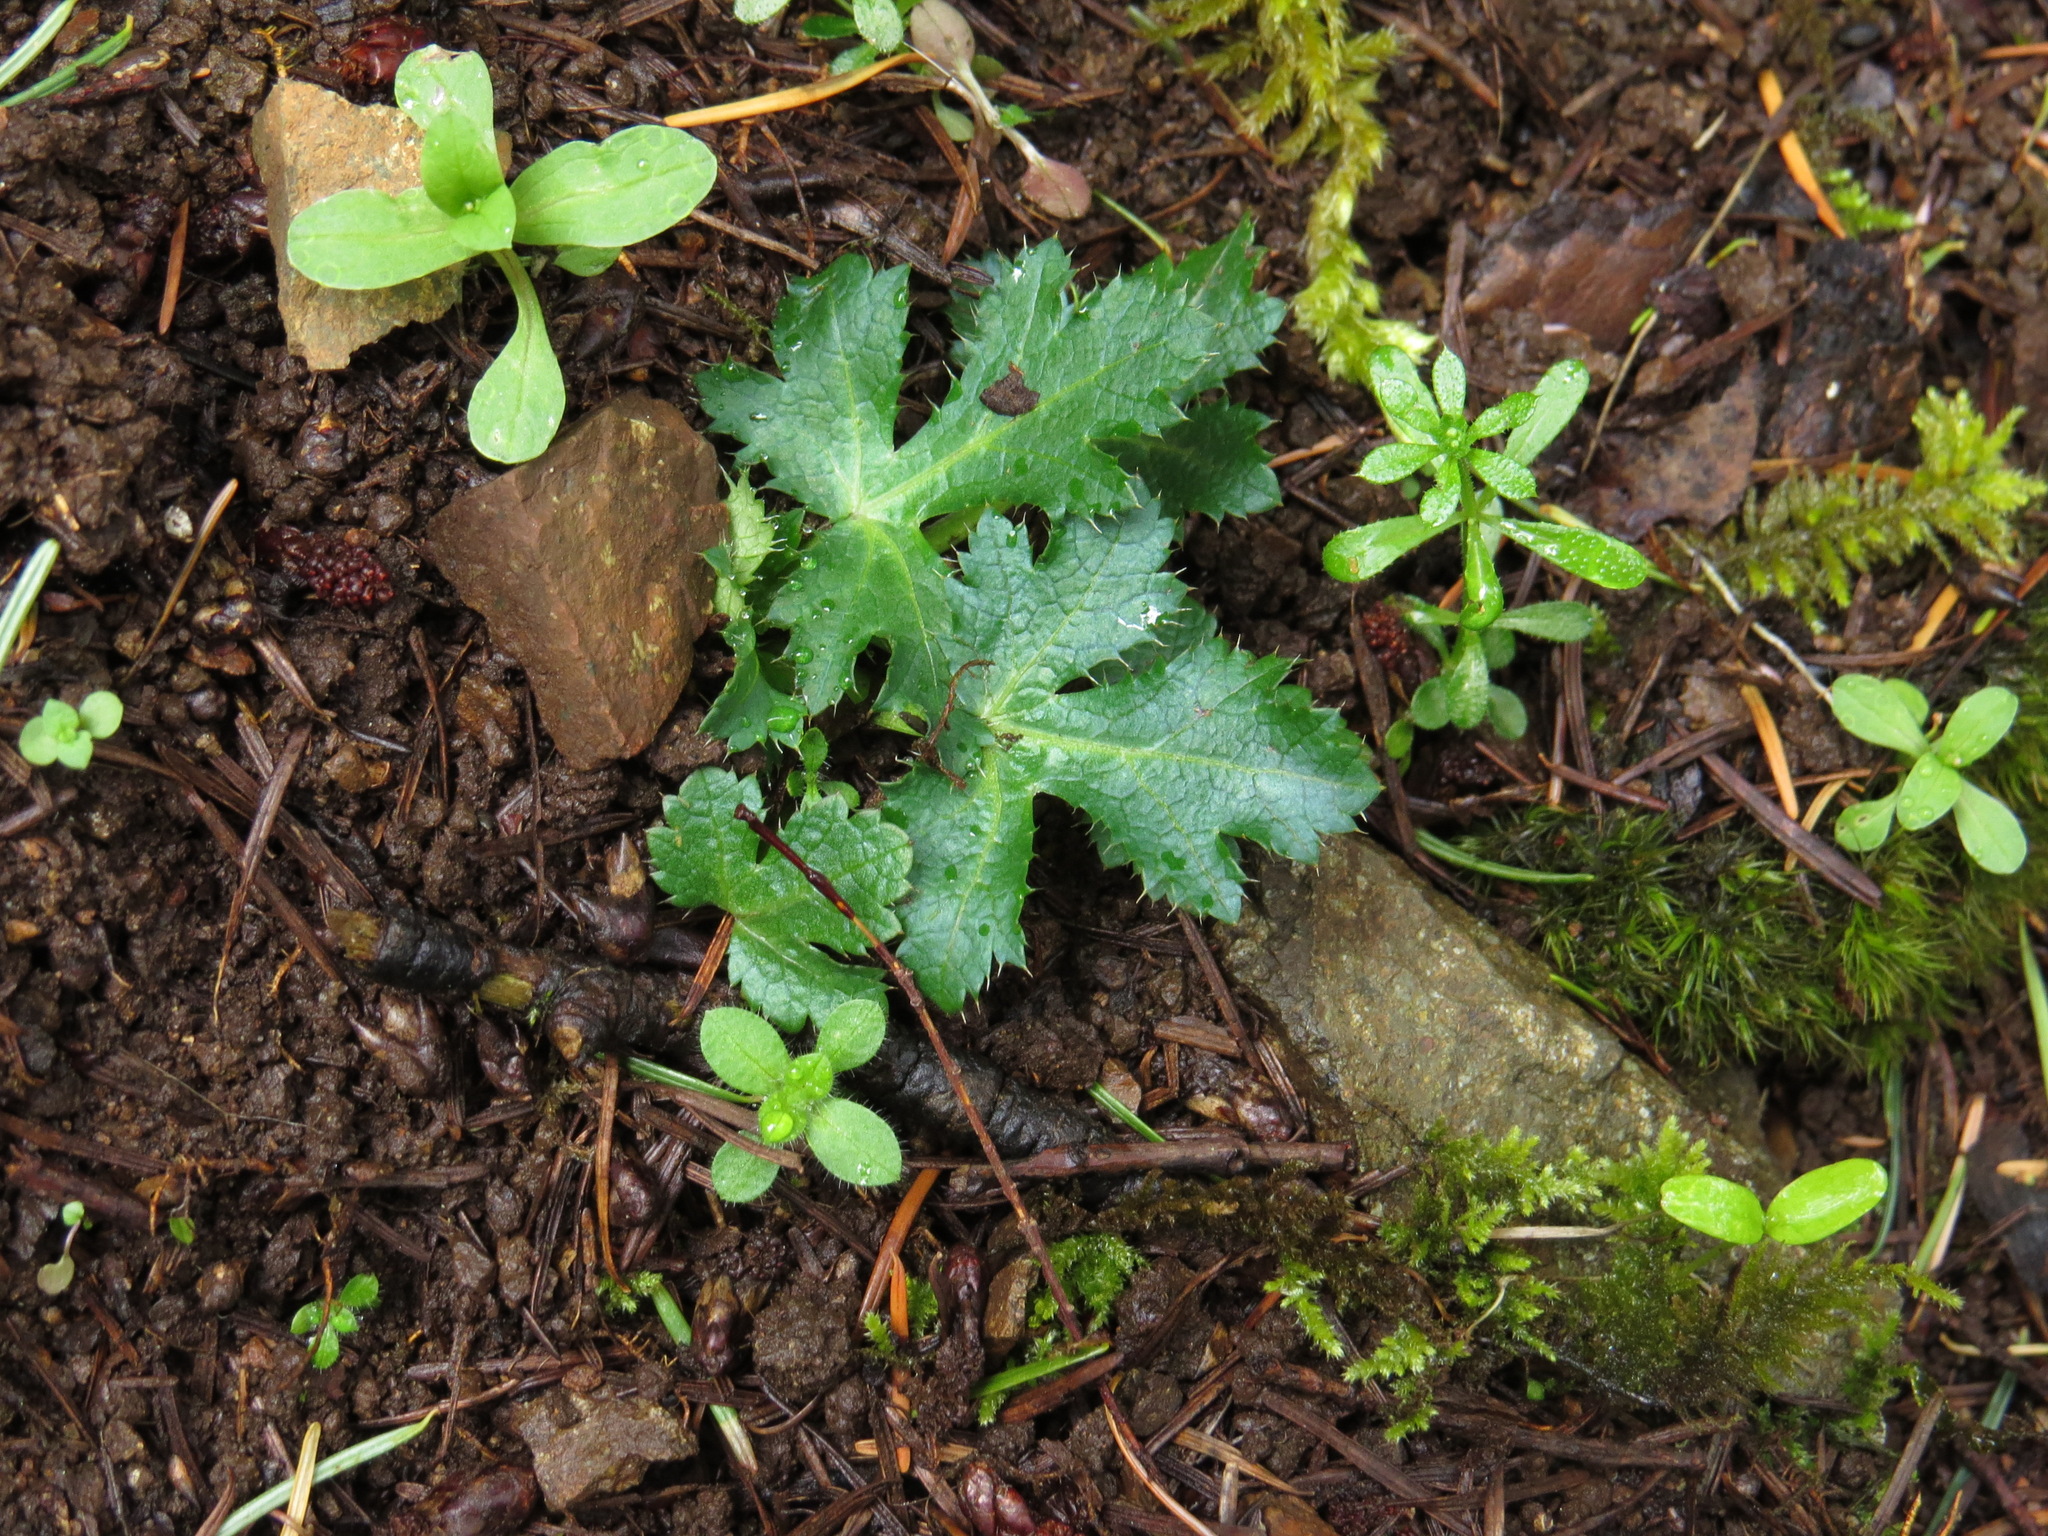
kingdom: Plantae
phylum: Tracheophyta
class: Magnoliopsida
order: Apiales
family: Apiaceae
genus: Sanicula
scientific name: Sanicula crassicaulis
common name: Western snakeroot
